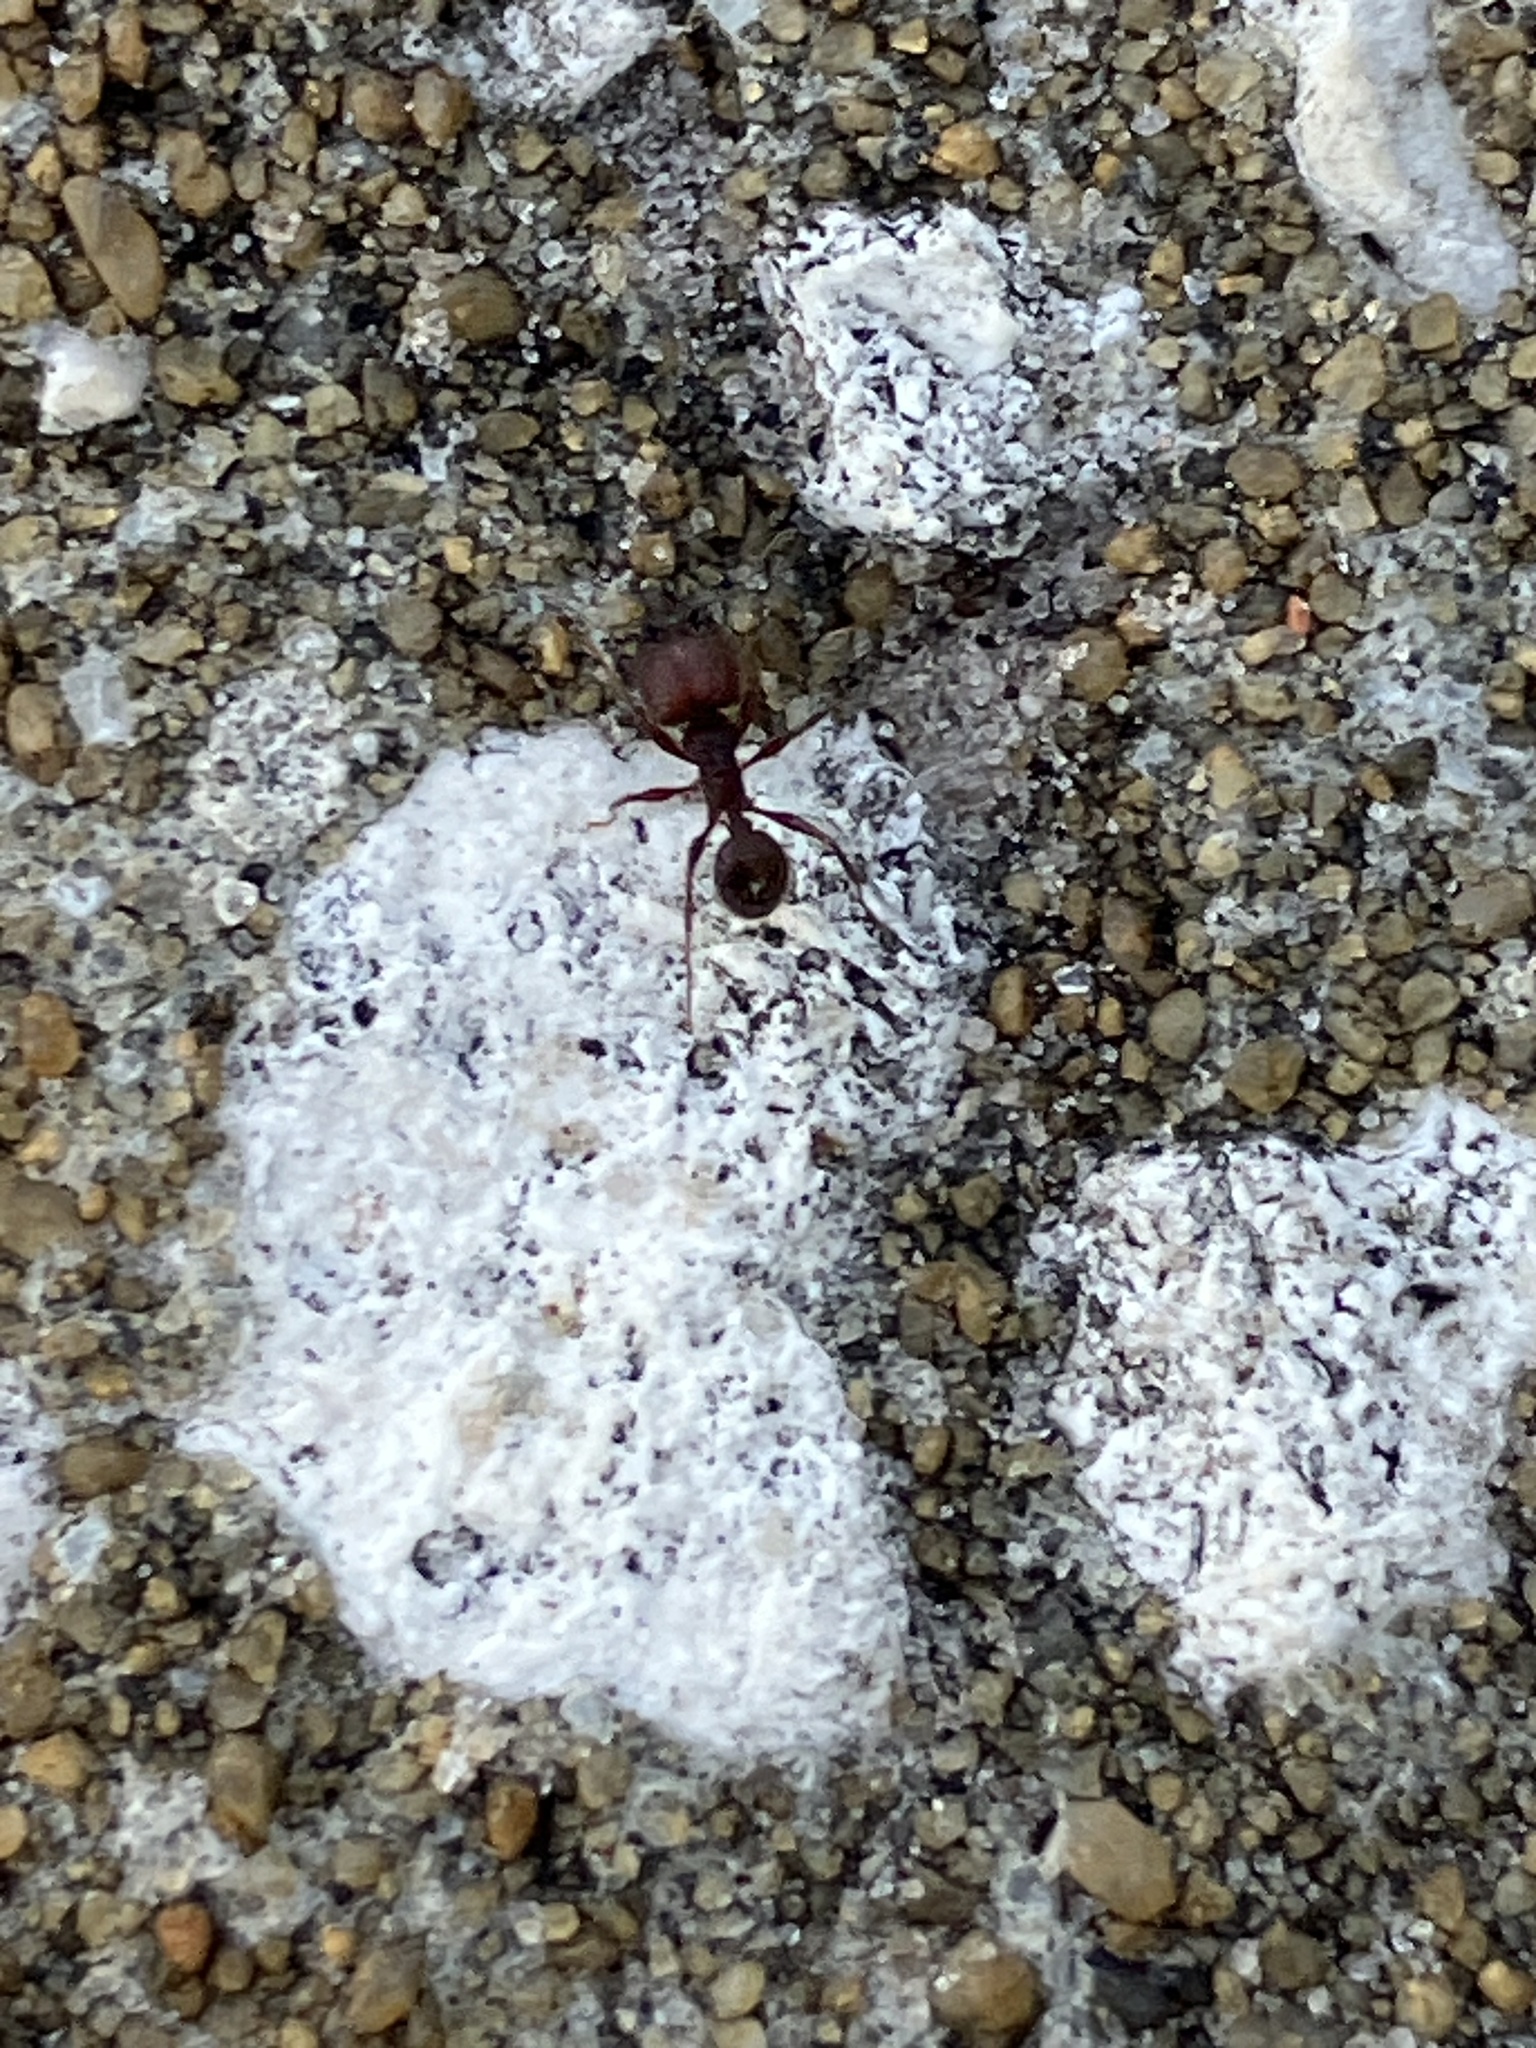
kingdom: Animalia
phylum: Arthropoda
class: Insecta
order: Hymenoptera
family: Formicidae
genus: Pheidole
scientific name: Pheidole obscurithorax
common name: Obscure big-headed ant
